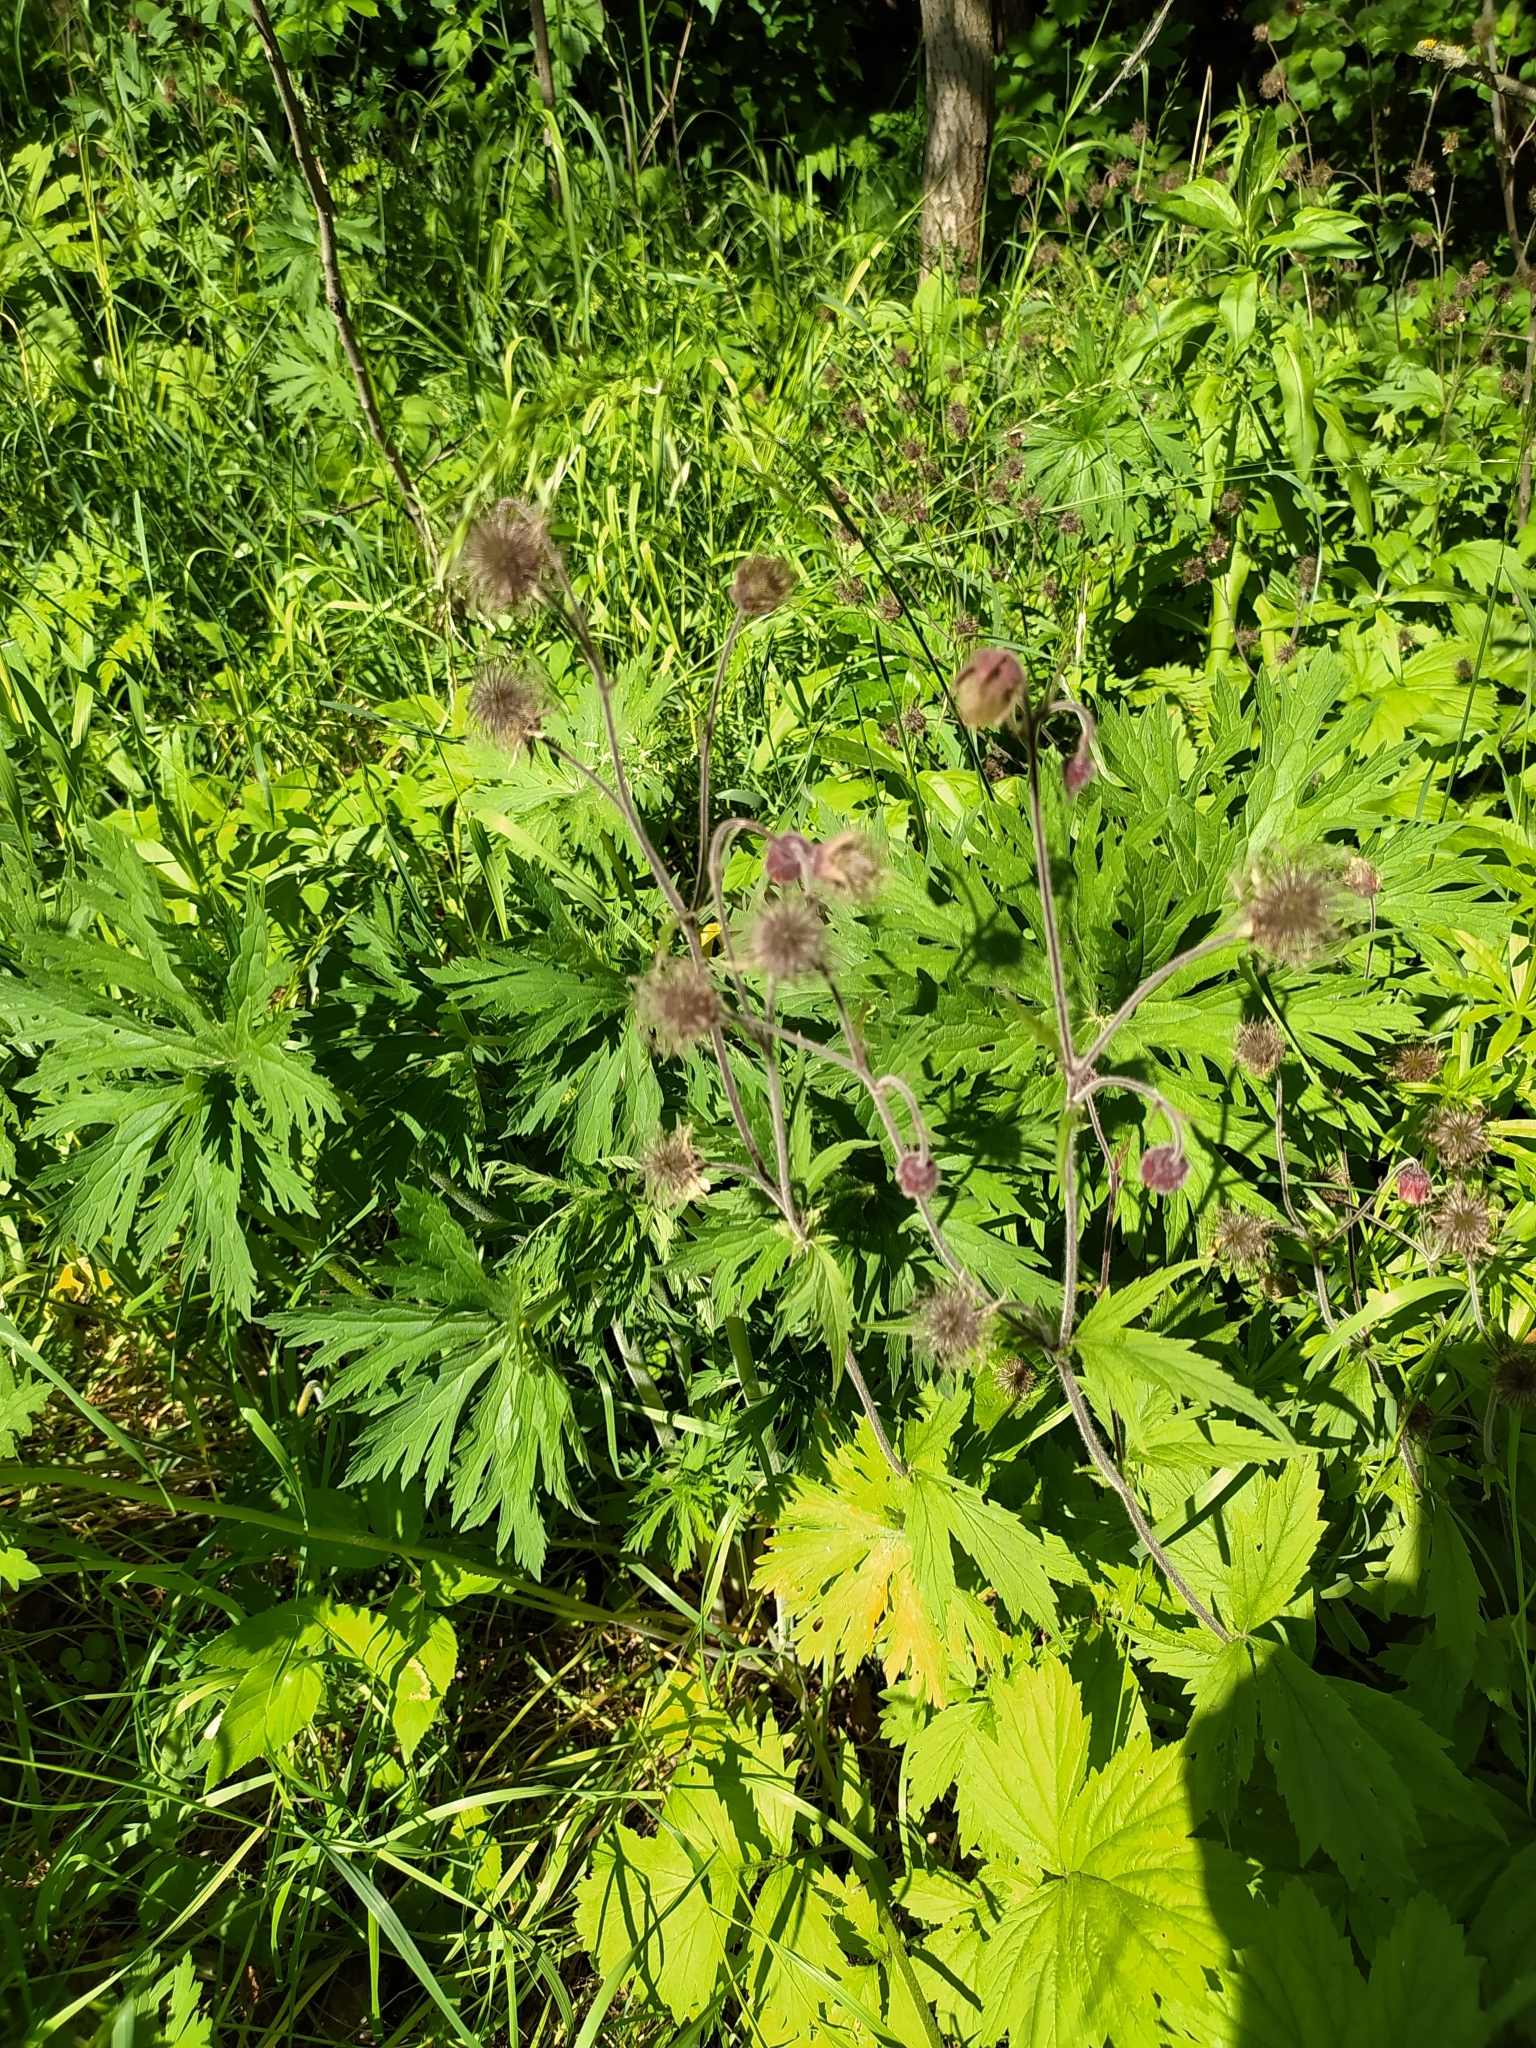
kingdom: Plantae
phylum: Tracheophyta
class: Magnoliopsida
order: Rosales
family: Rosaceae
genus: Geum
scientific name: Geum rivale
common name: Water avens
